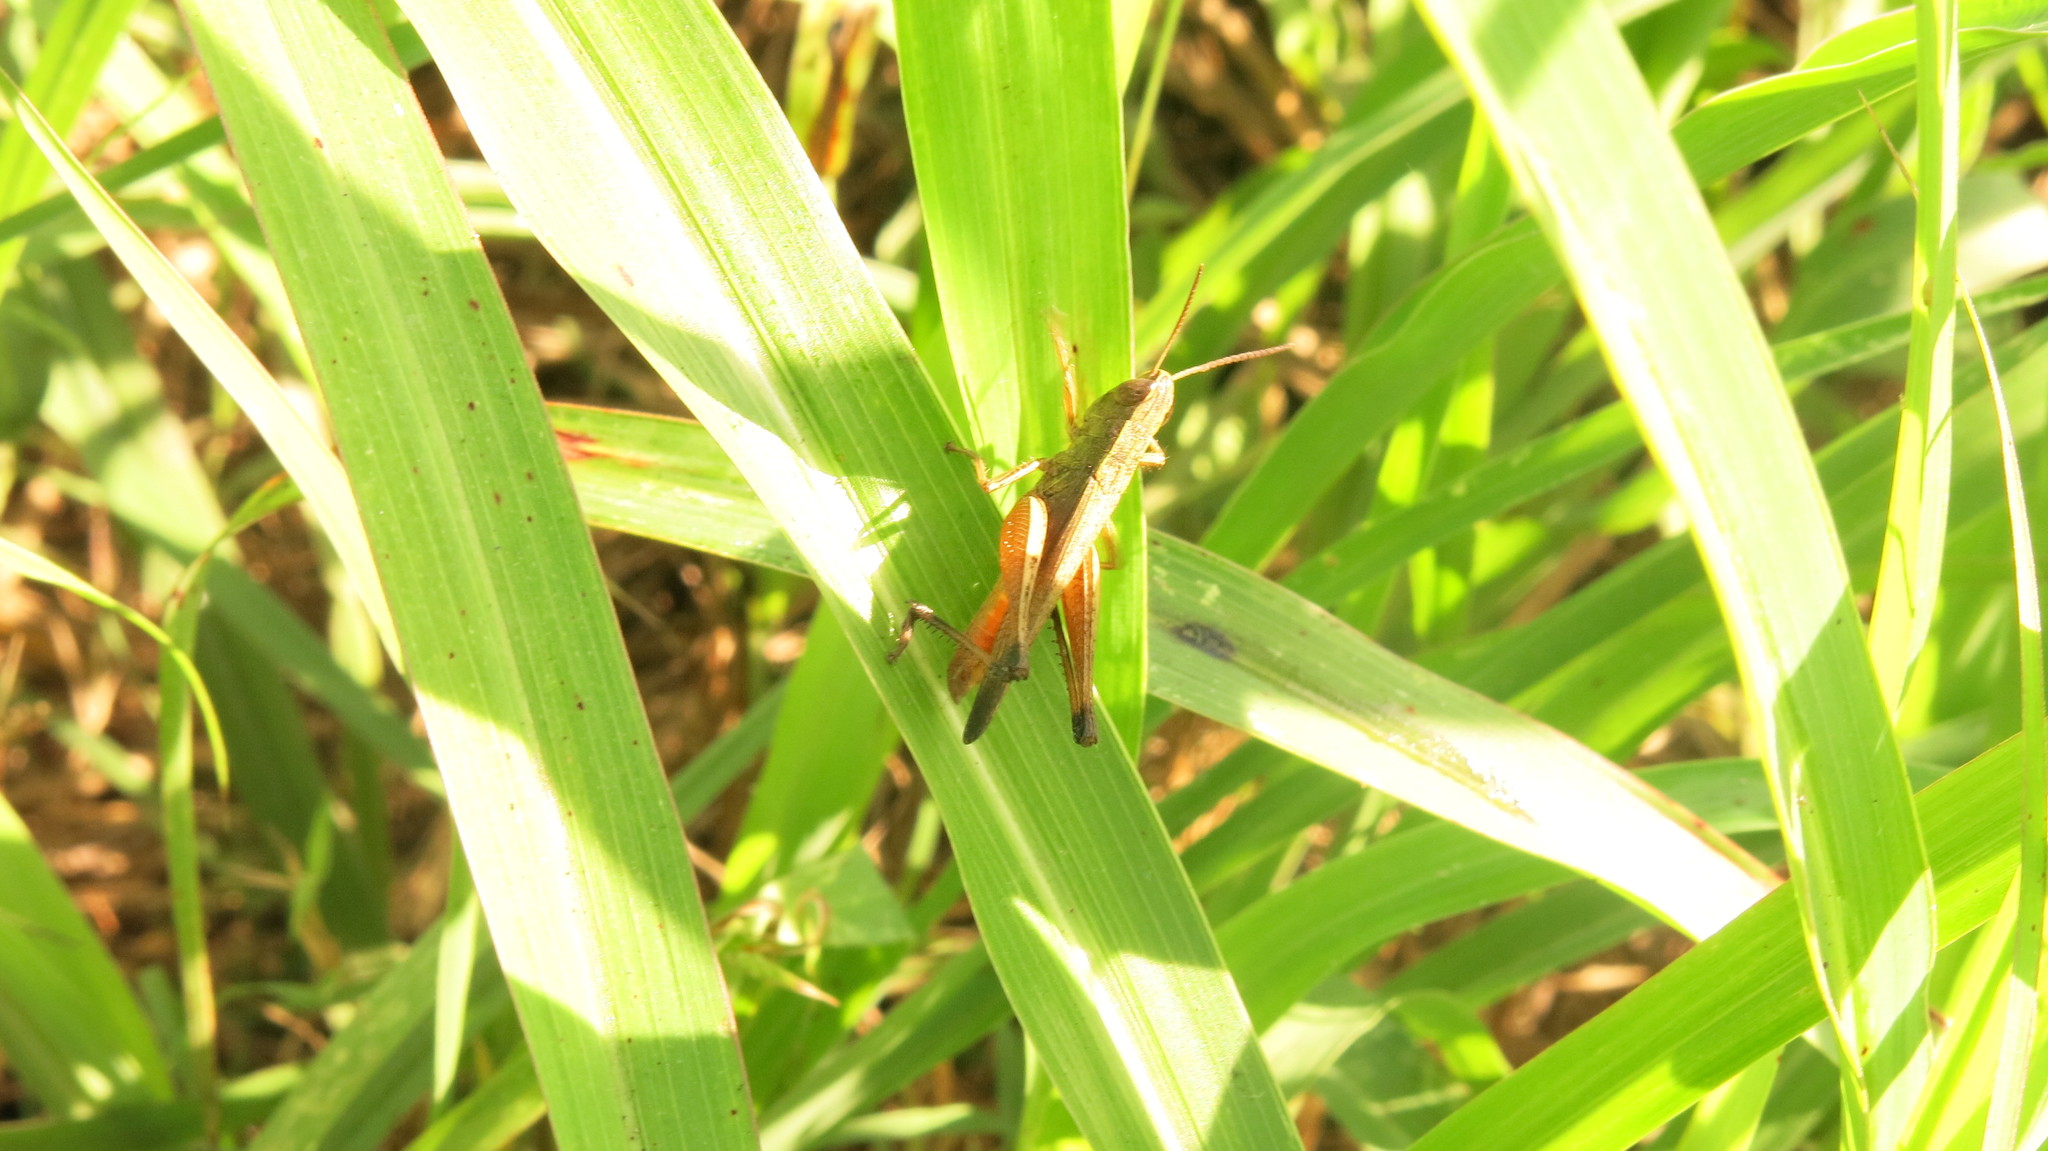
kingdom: Animalia
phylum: Arthropoda
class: Insecta
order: Orthoptera
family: Acrididae
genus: Amblytropidia
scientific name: Amblytropidia australis
